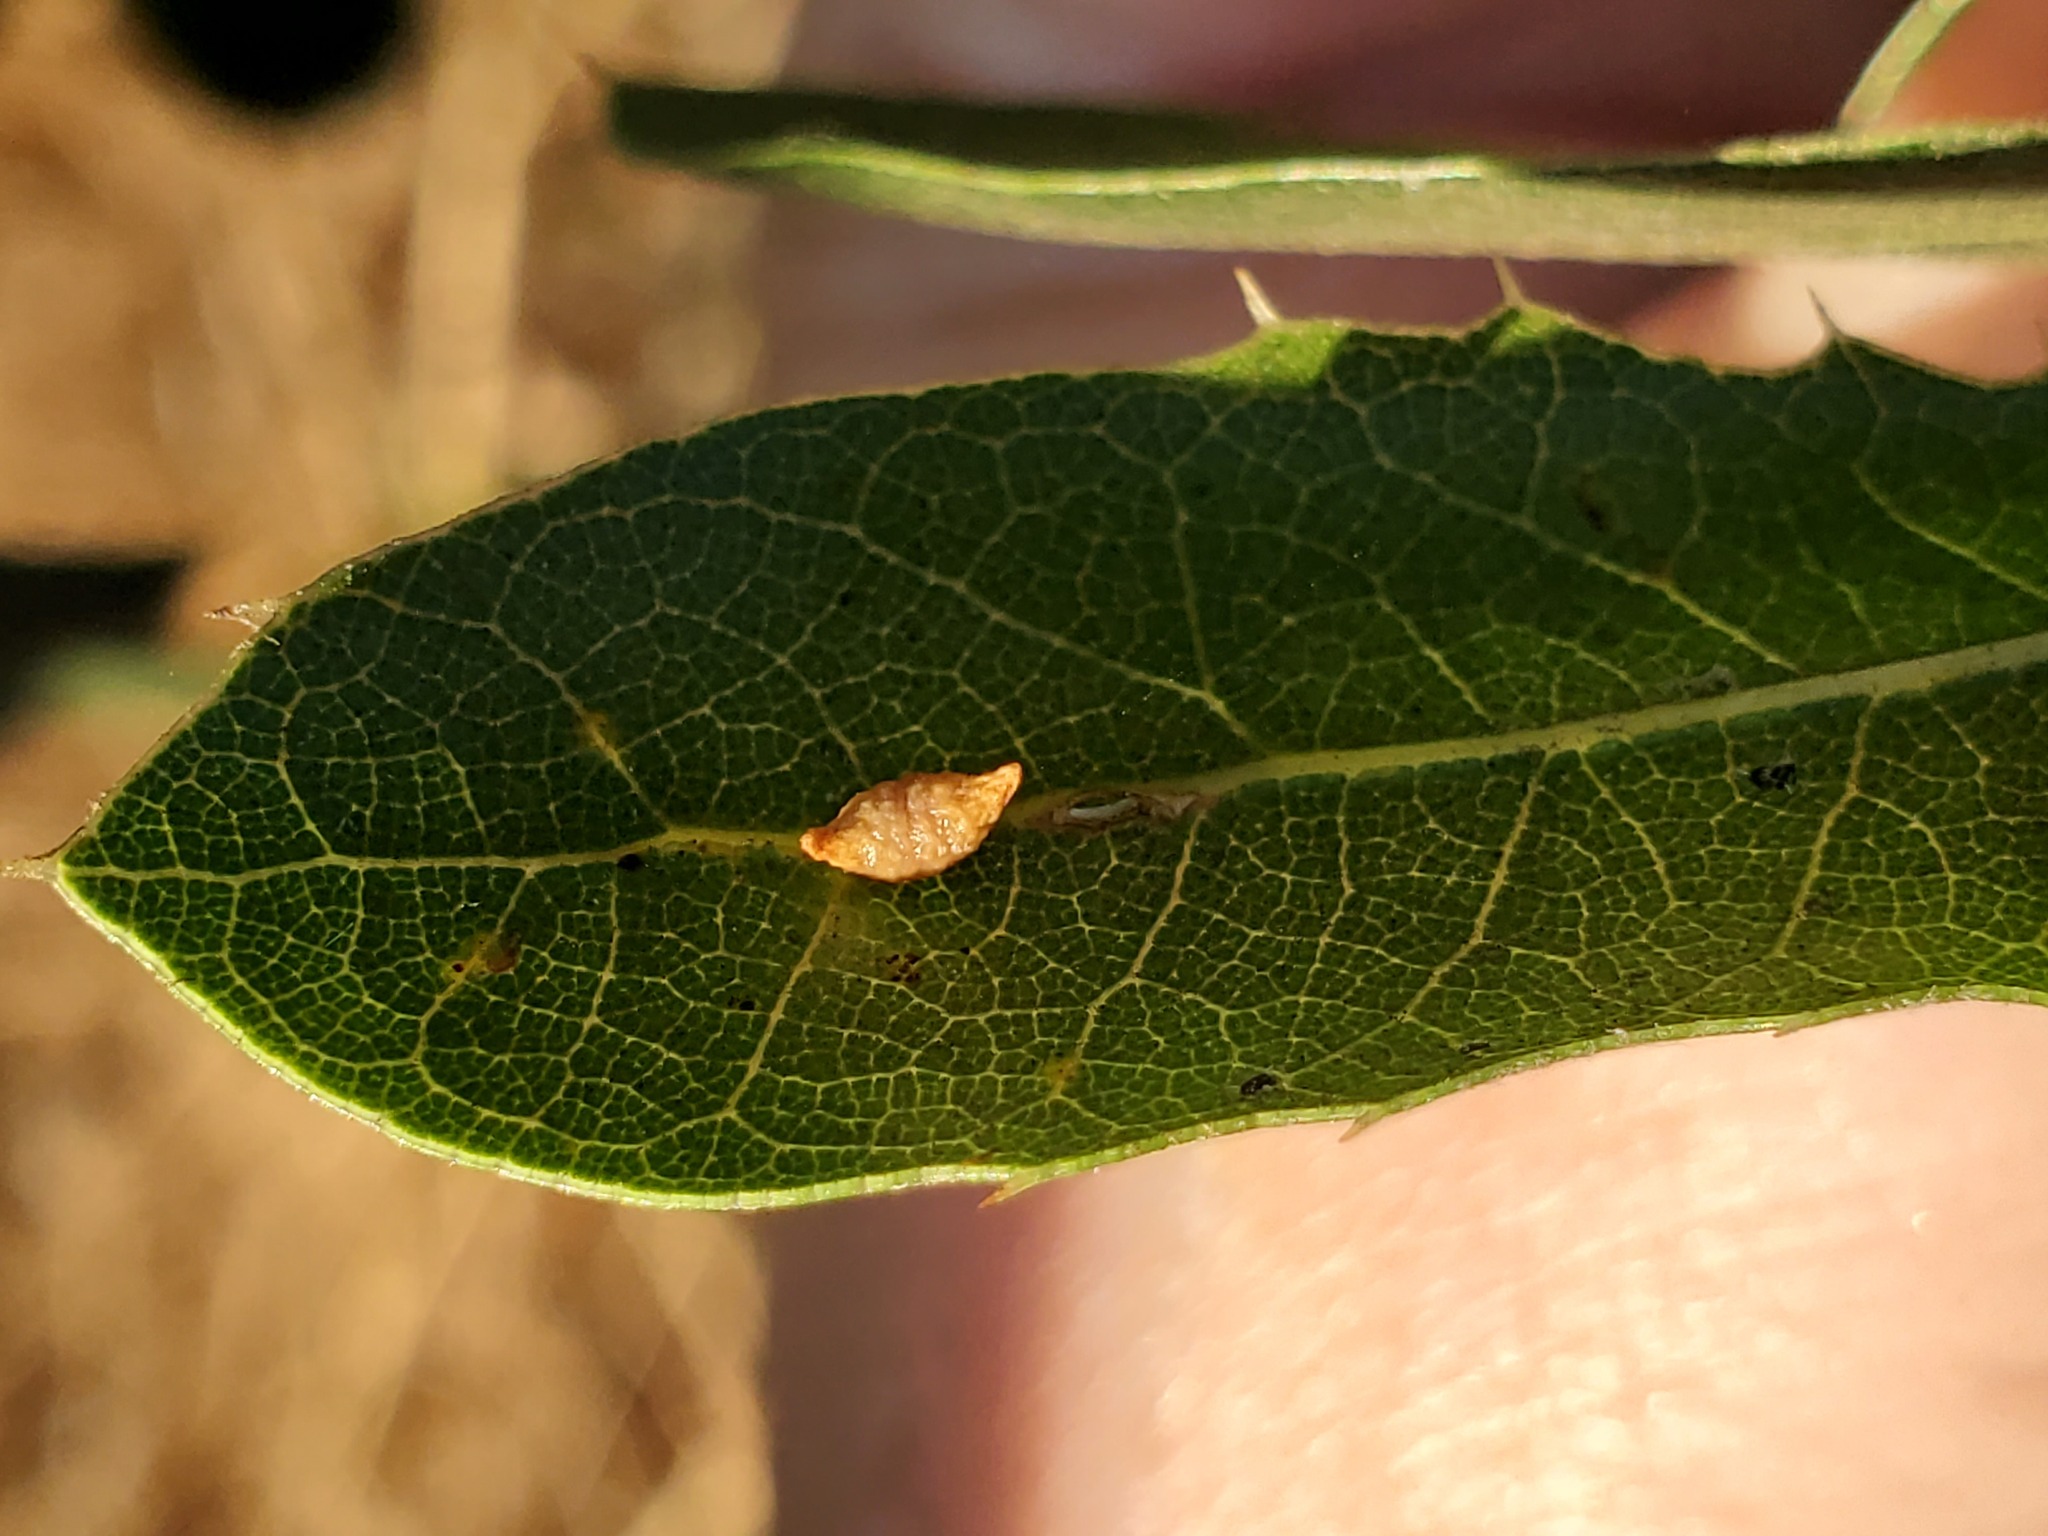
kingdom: Animalia
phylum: Arthropoda
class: Insecta
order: Hymenoptera
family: Cynipidae
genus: Dryocosmus
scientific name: Dryocosmus
